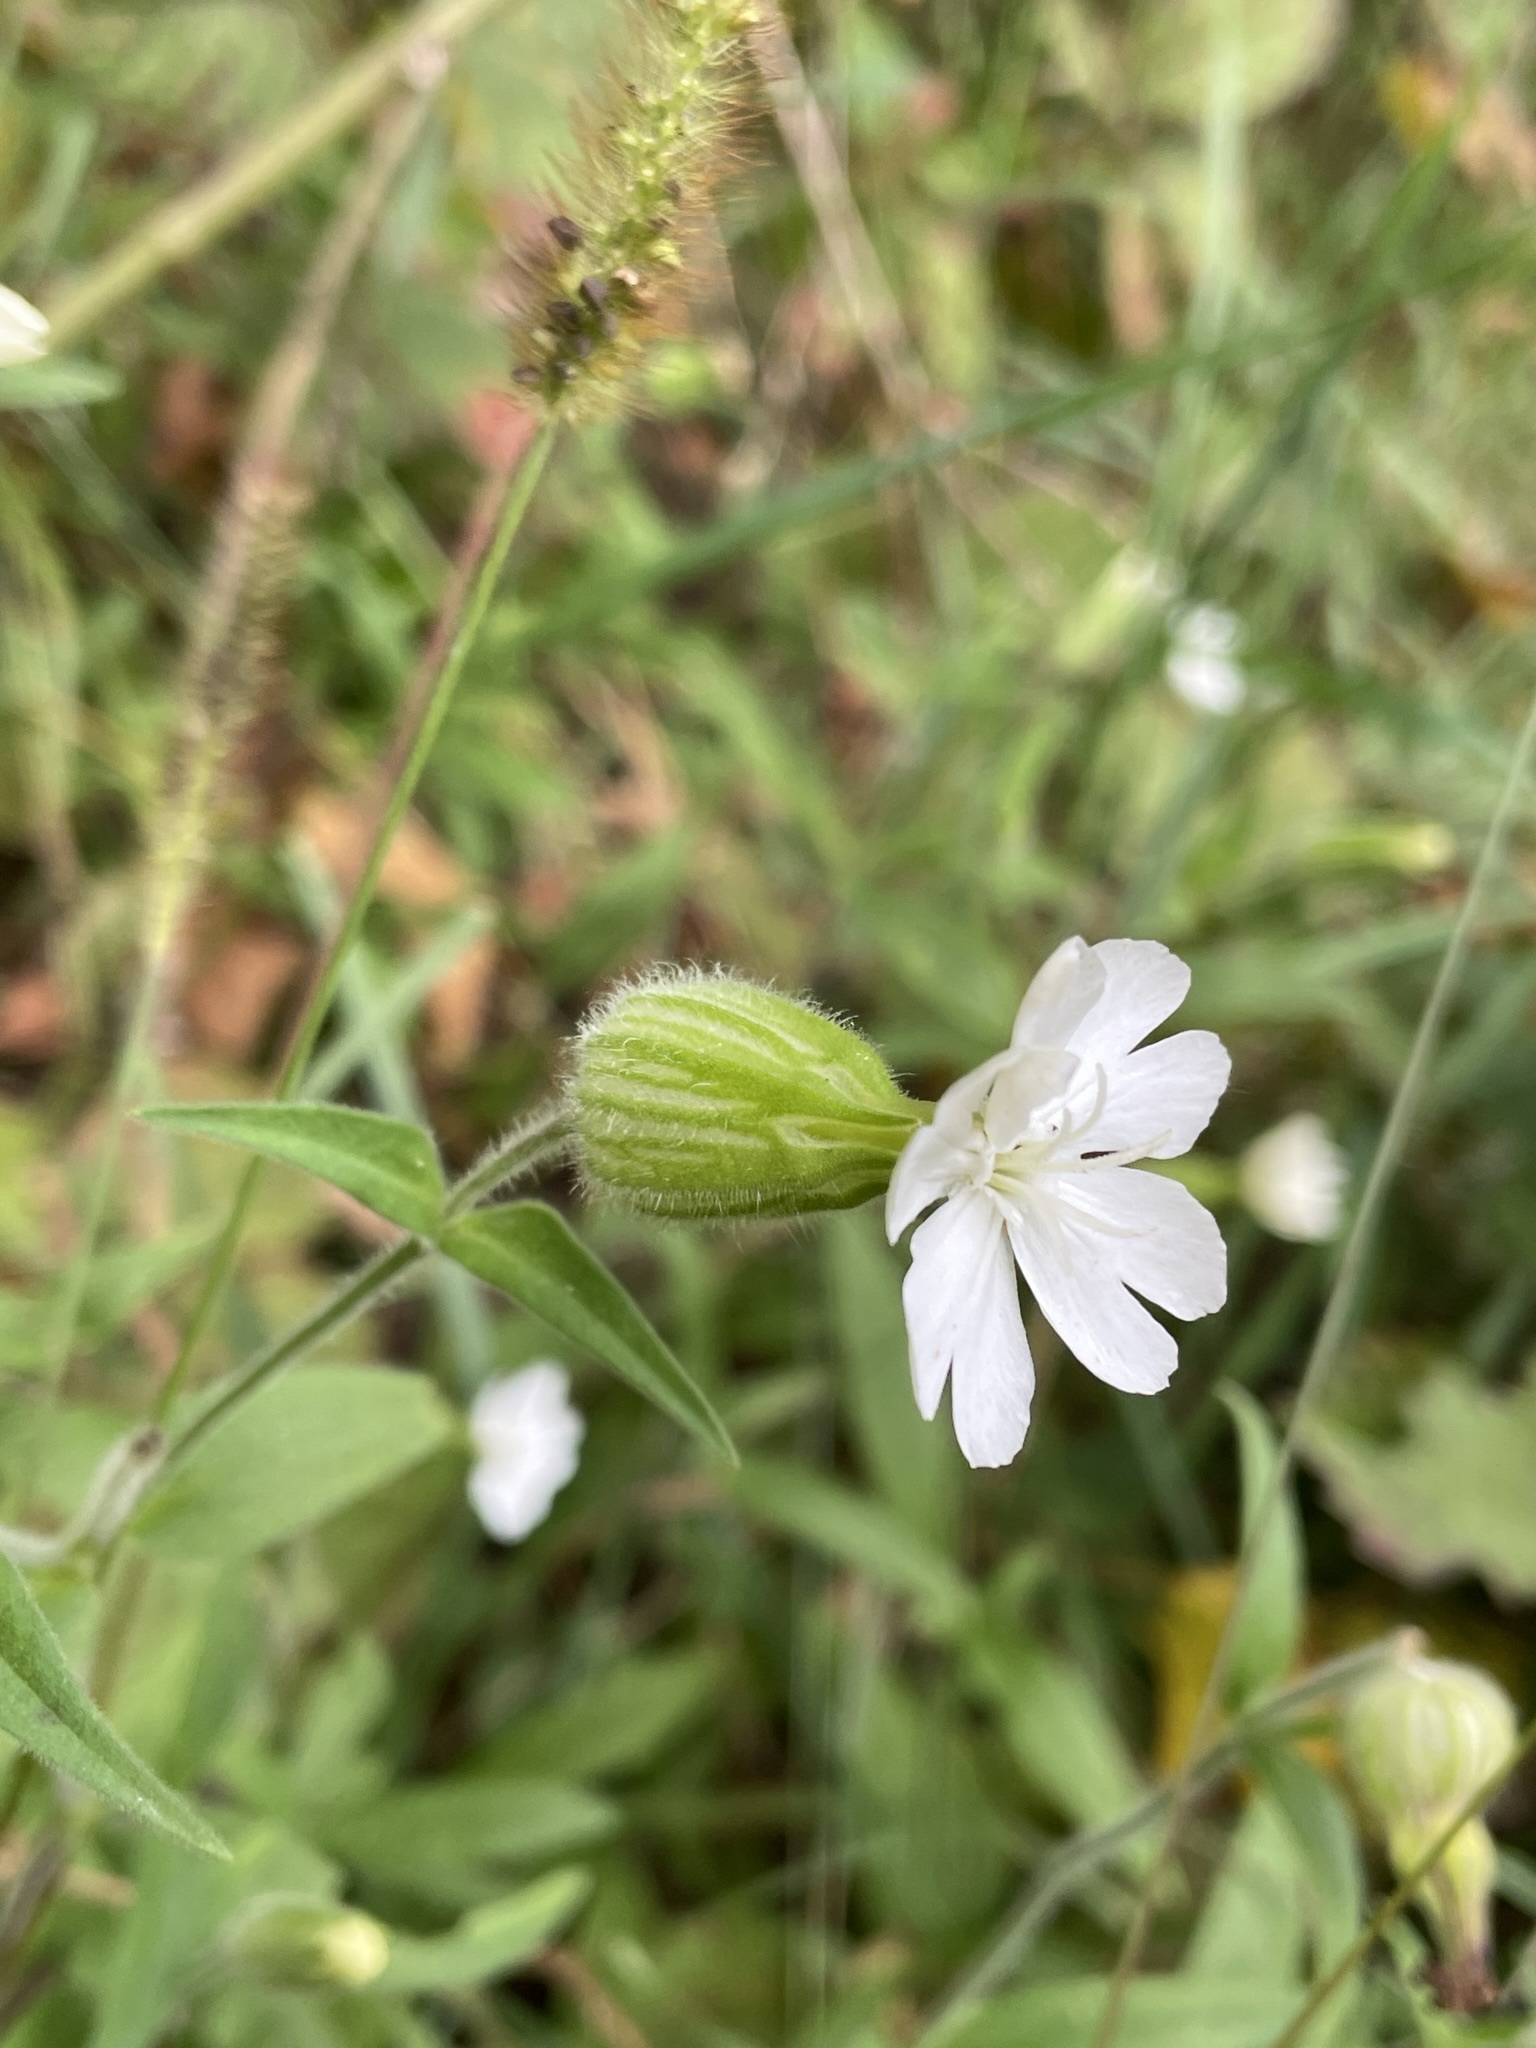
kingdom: Plantae
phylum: Tracheophyta
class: Magnoliopsida
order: Caryophyllales
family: Caryophyllaceae
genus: Silene
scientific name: Silene latifolia
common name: White campion
